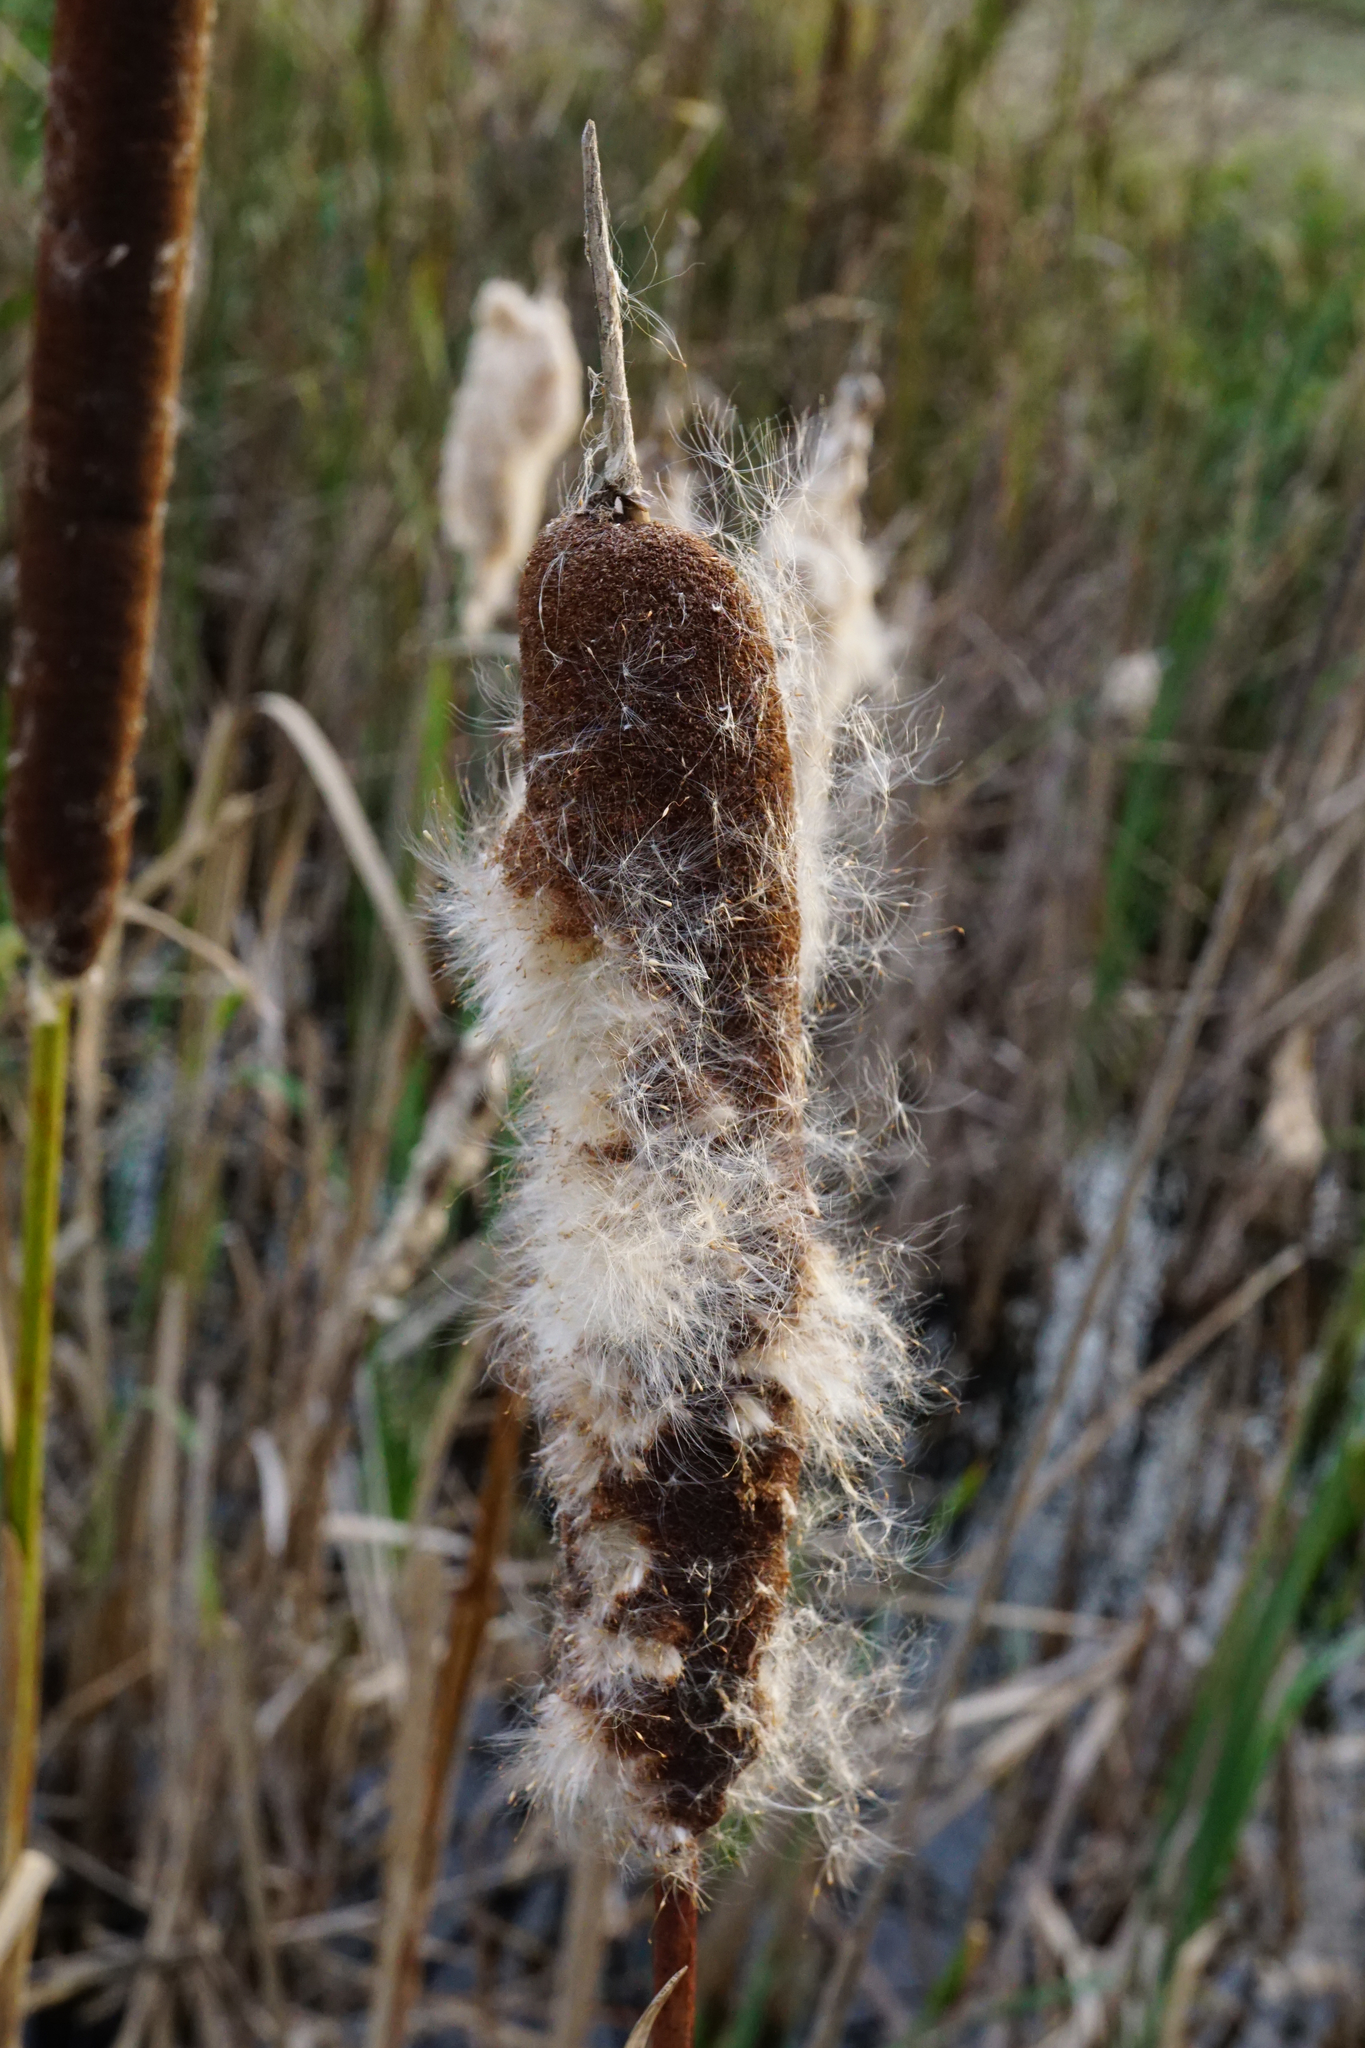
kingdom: Plantae
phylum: Tracheophyta
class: Liliopsida
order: Poales
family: Typhaceae
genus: Typha
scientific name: Typha latifolia
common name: Broadleaf cattail
